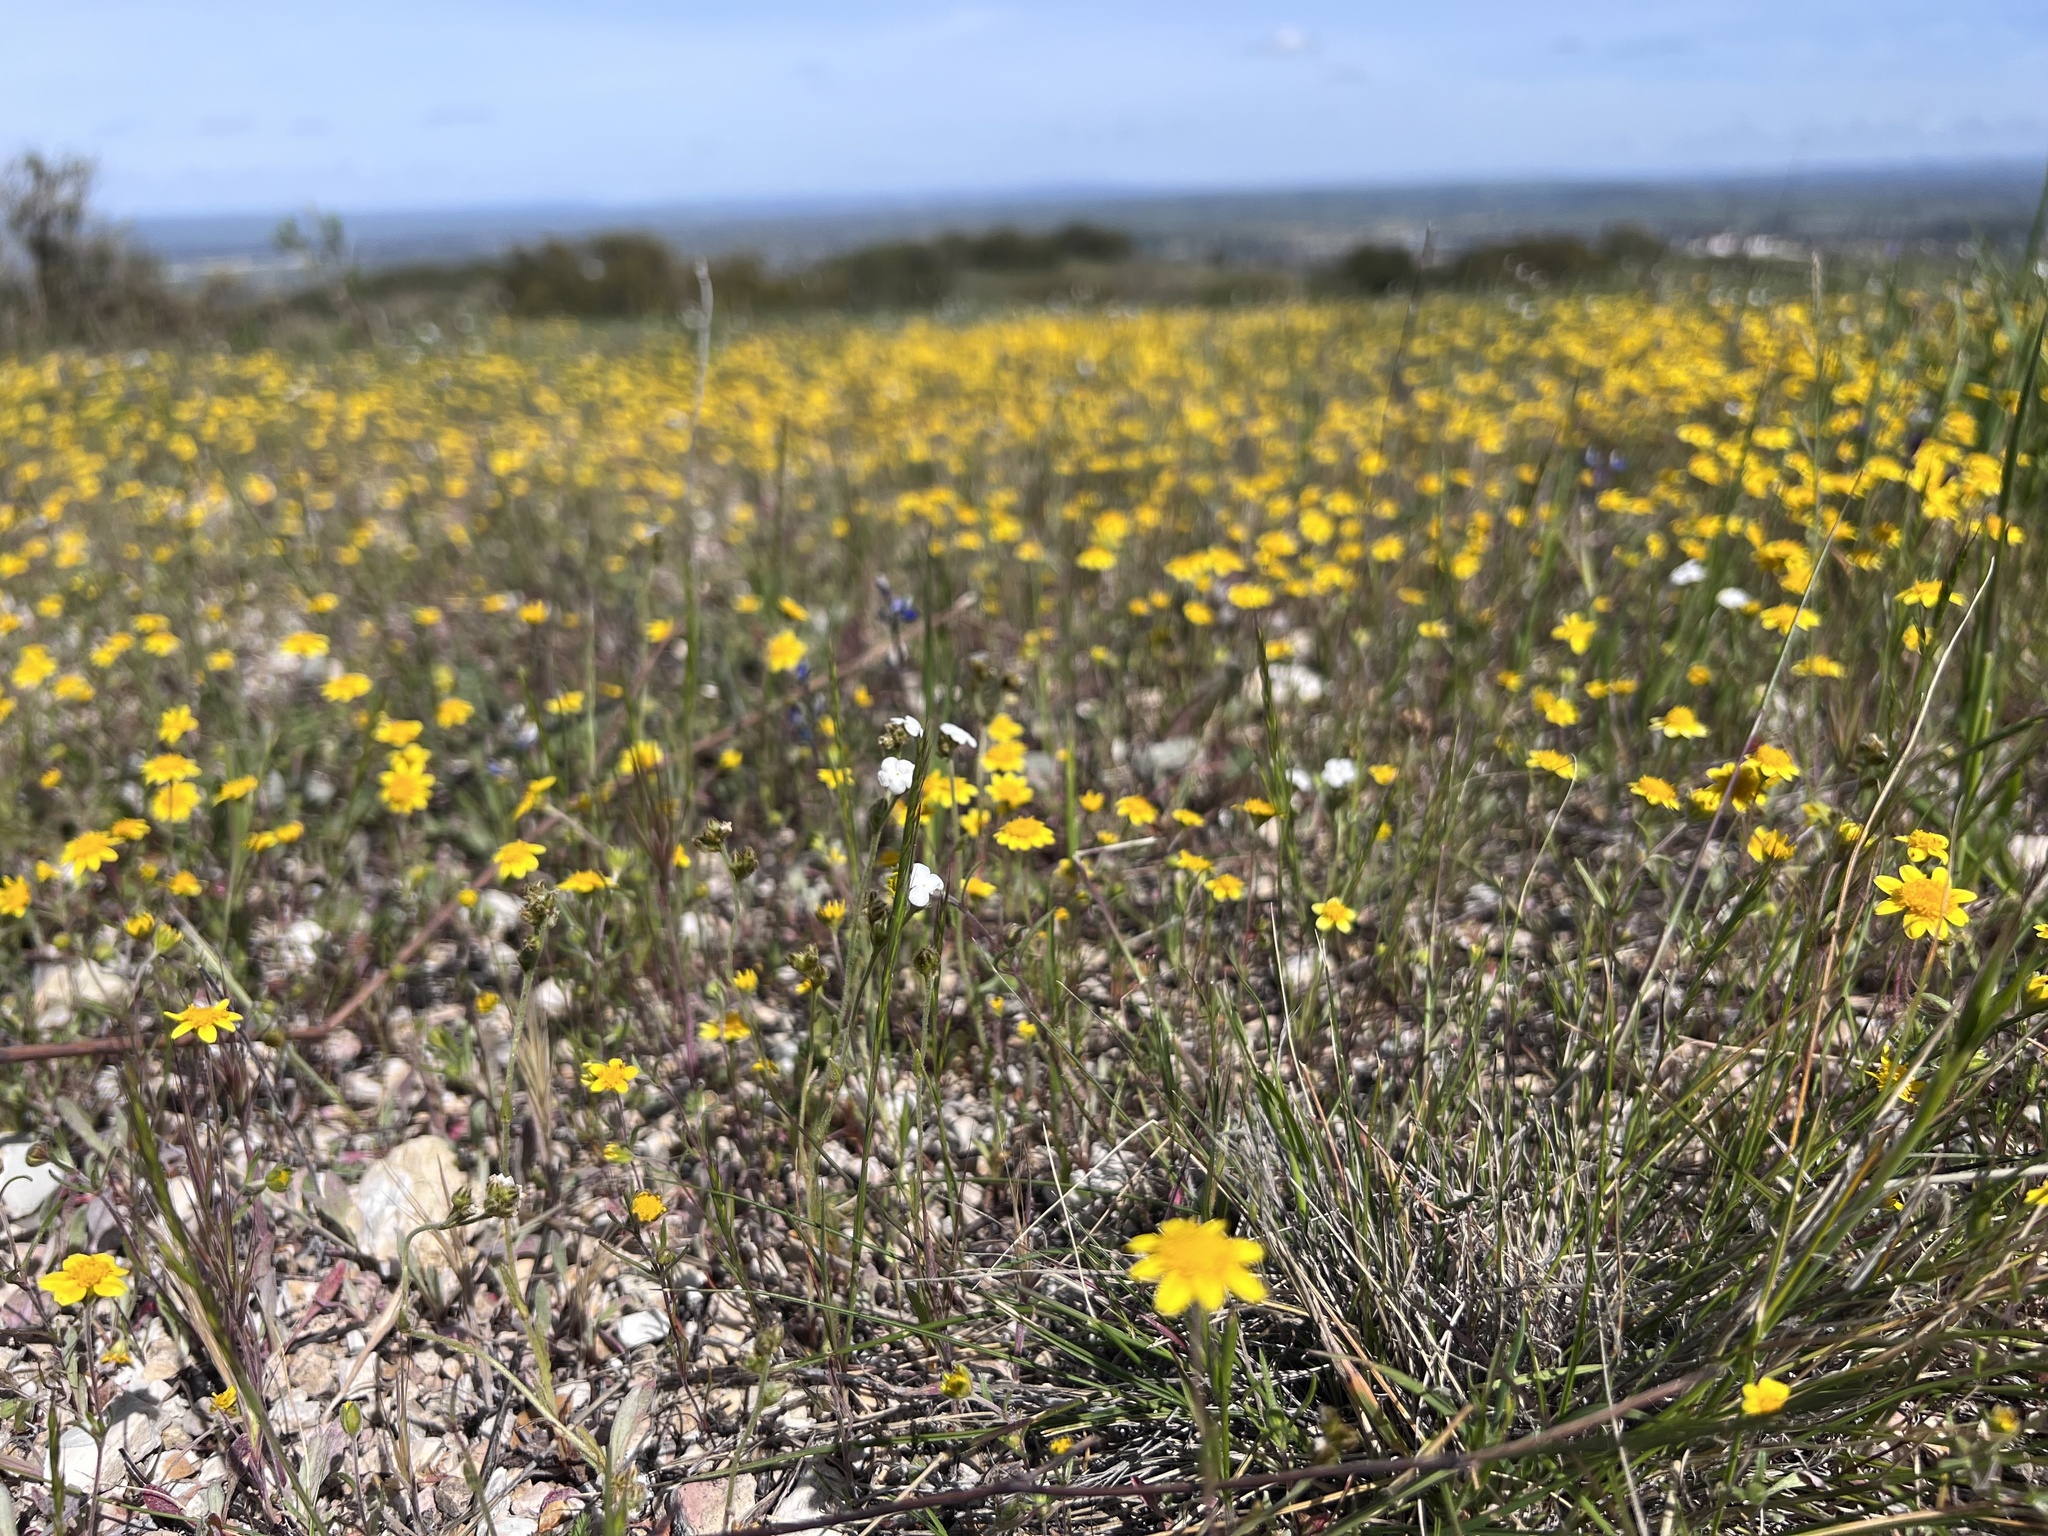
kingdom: Plantae
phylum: Tracheophyta
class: Magnoliopsida
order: Asterales
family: Asteraceae
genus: Lasthenia
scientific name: Lasthenia gracilis
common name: Common goldfields
